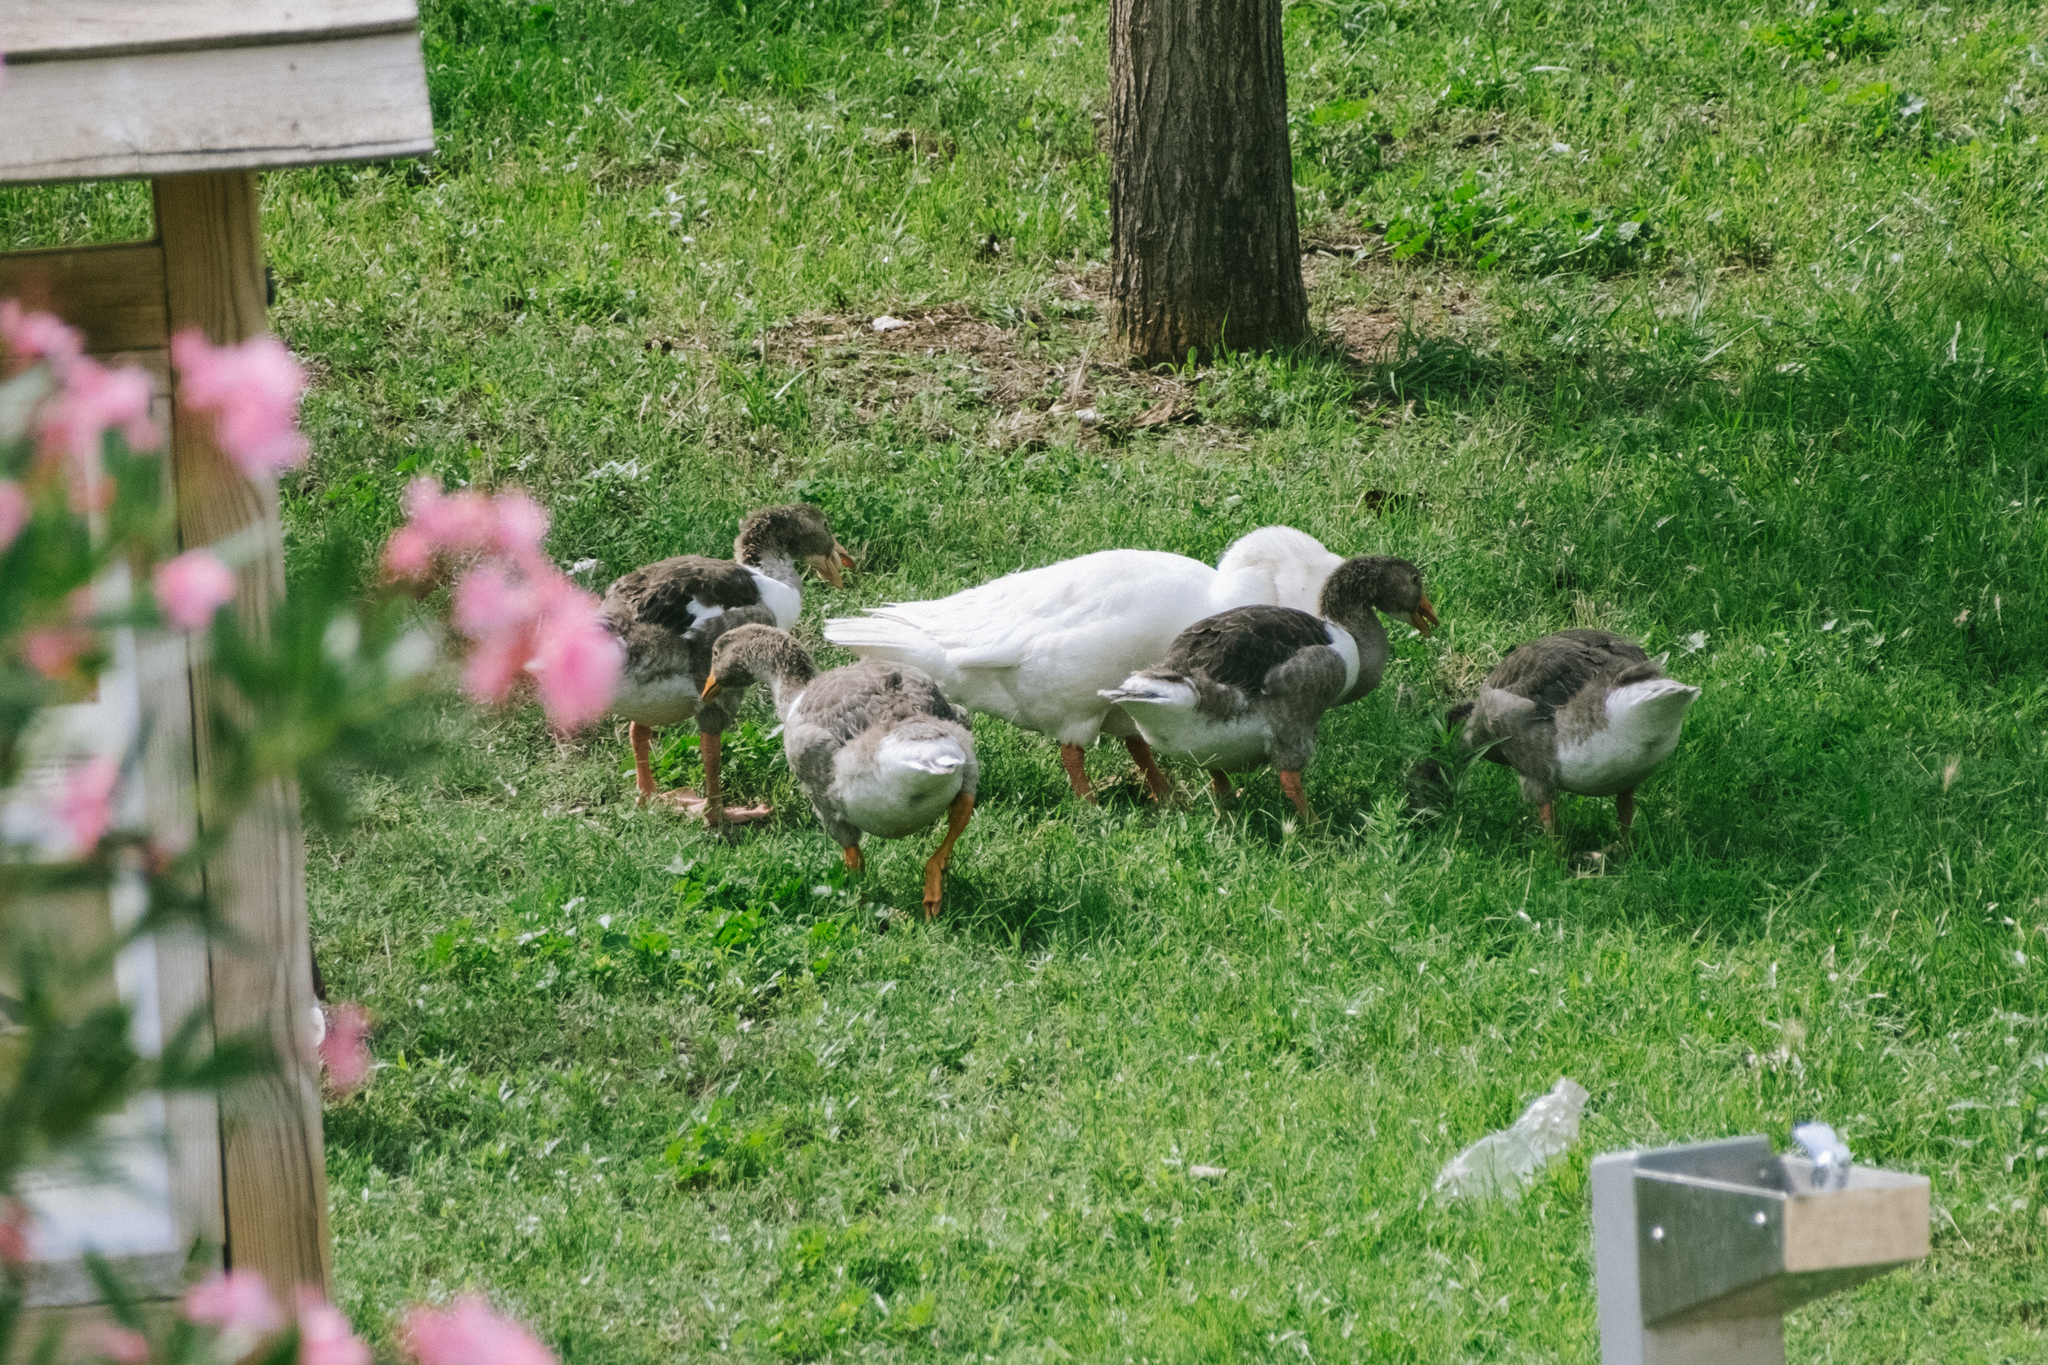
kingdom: Animalia
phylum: Chordata
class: Aves
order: Anseriformes
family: Anatidae
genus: Anser
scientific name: Anser anser
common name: Greylag goose
